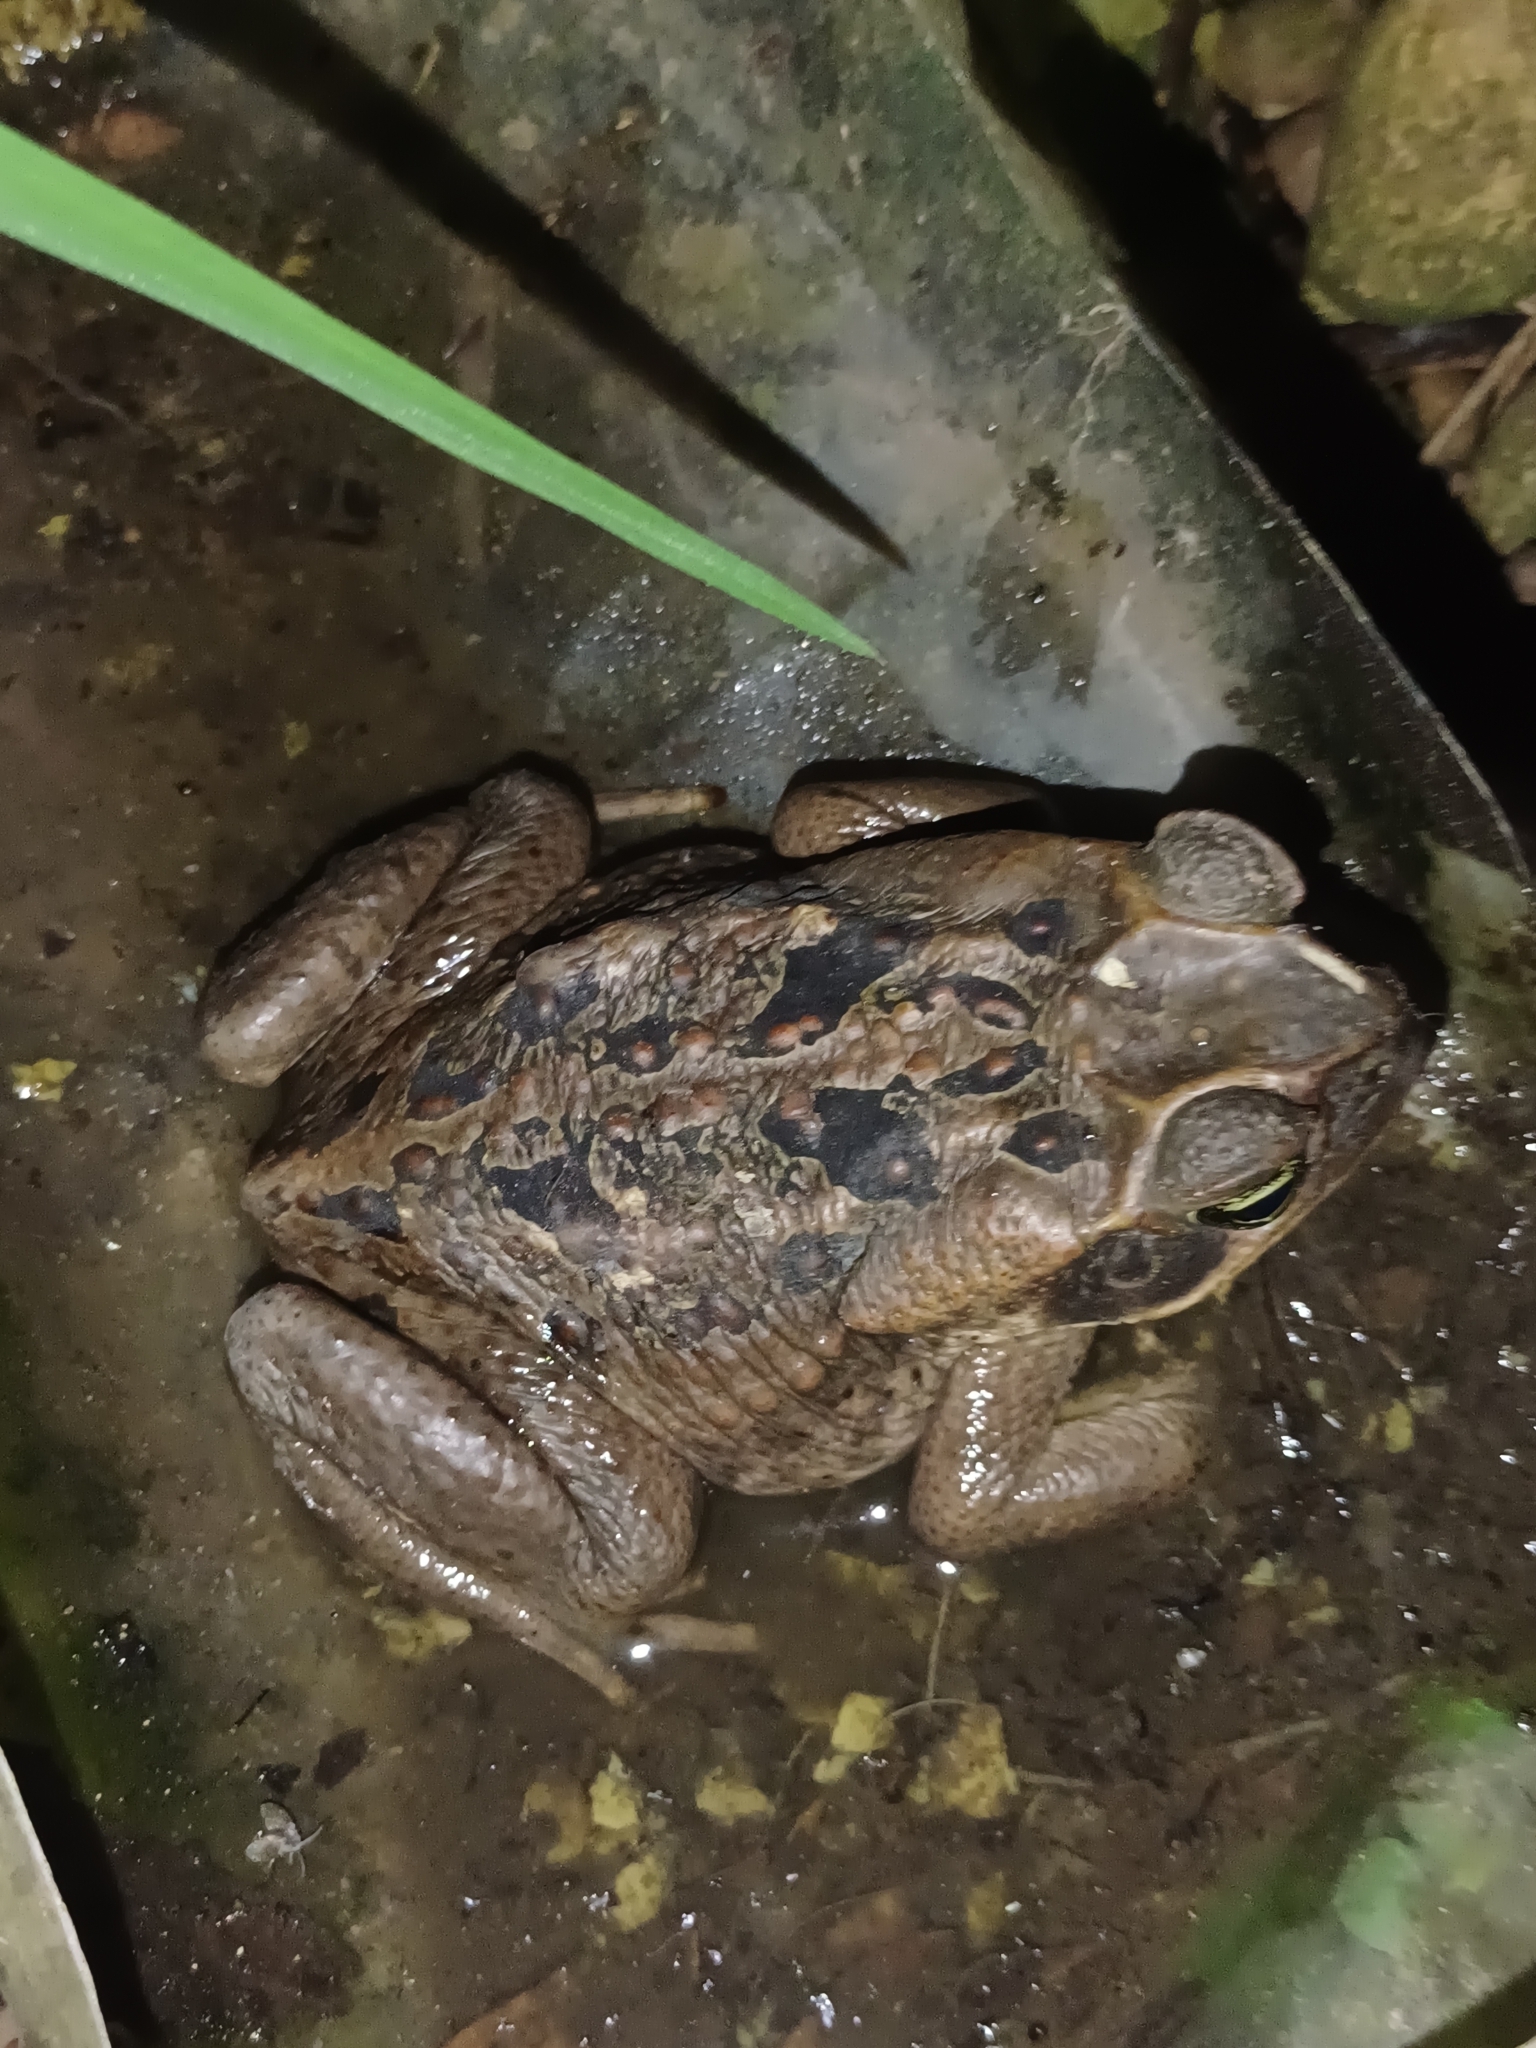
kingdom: Animalia
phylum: Chordata
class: Amphibia
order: Anura
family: Bufonidae
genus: Rhinella
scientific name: Rhinella marina
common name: Cane toad
